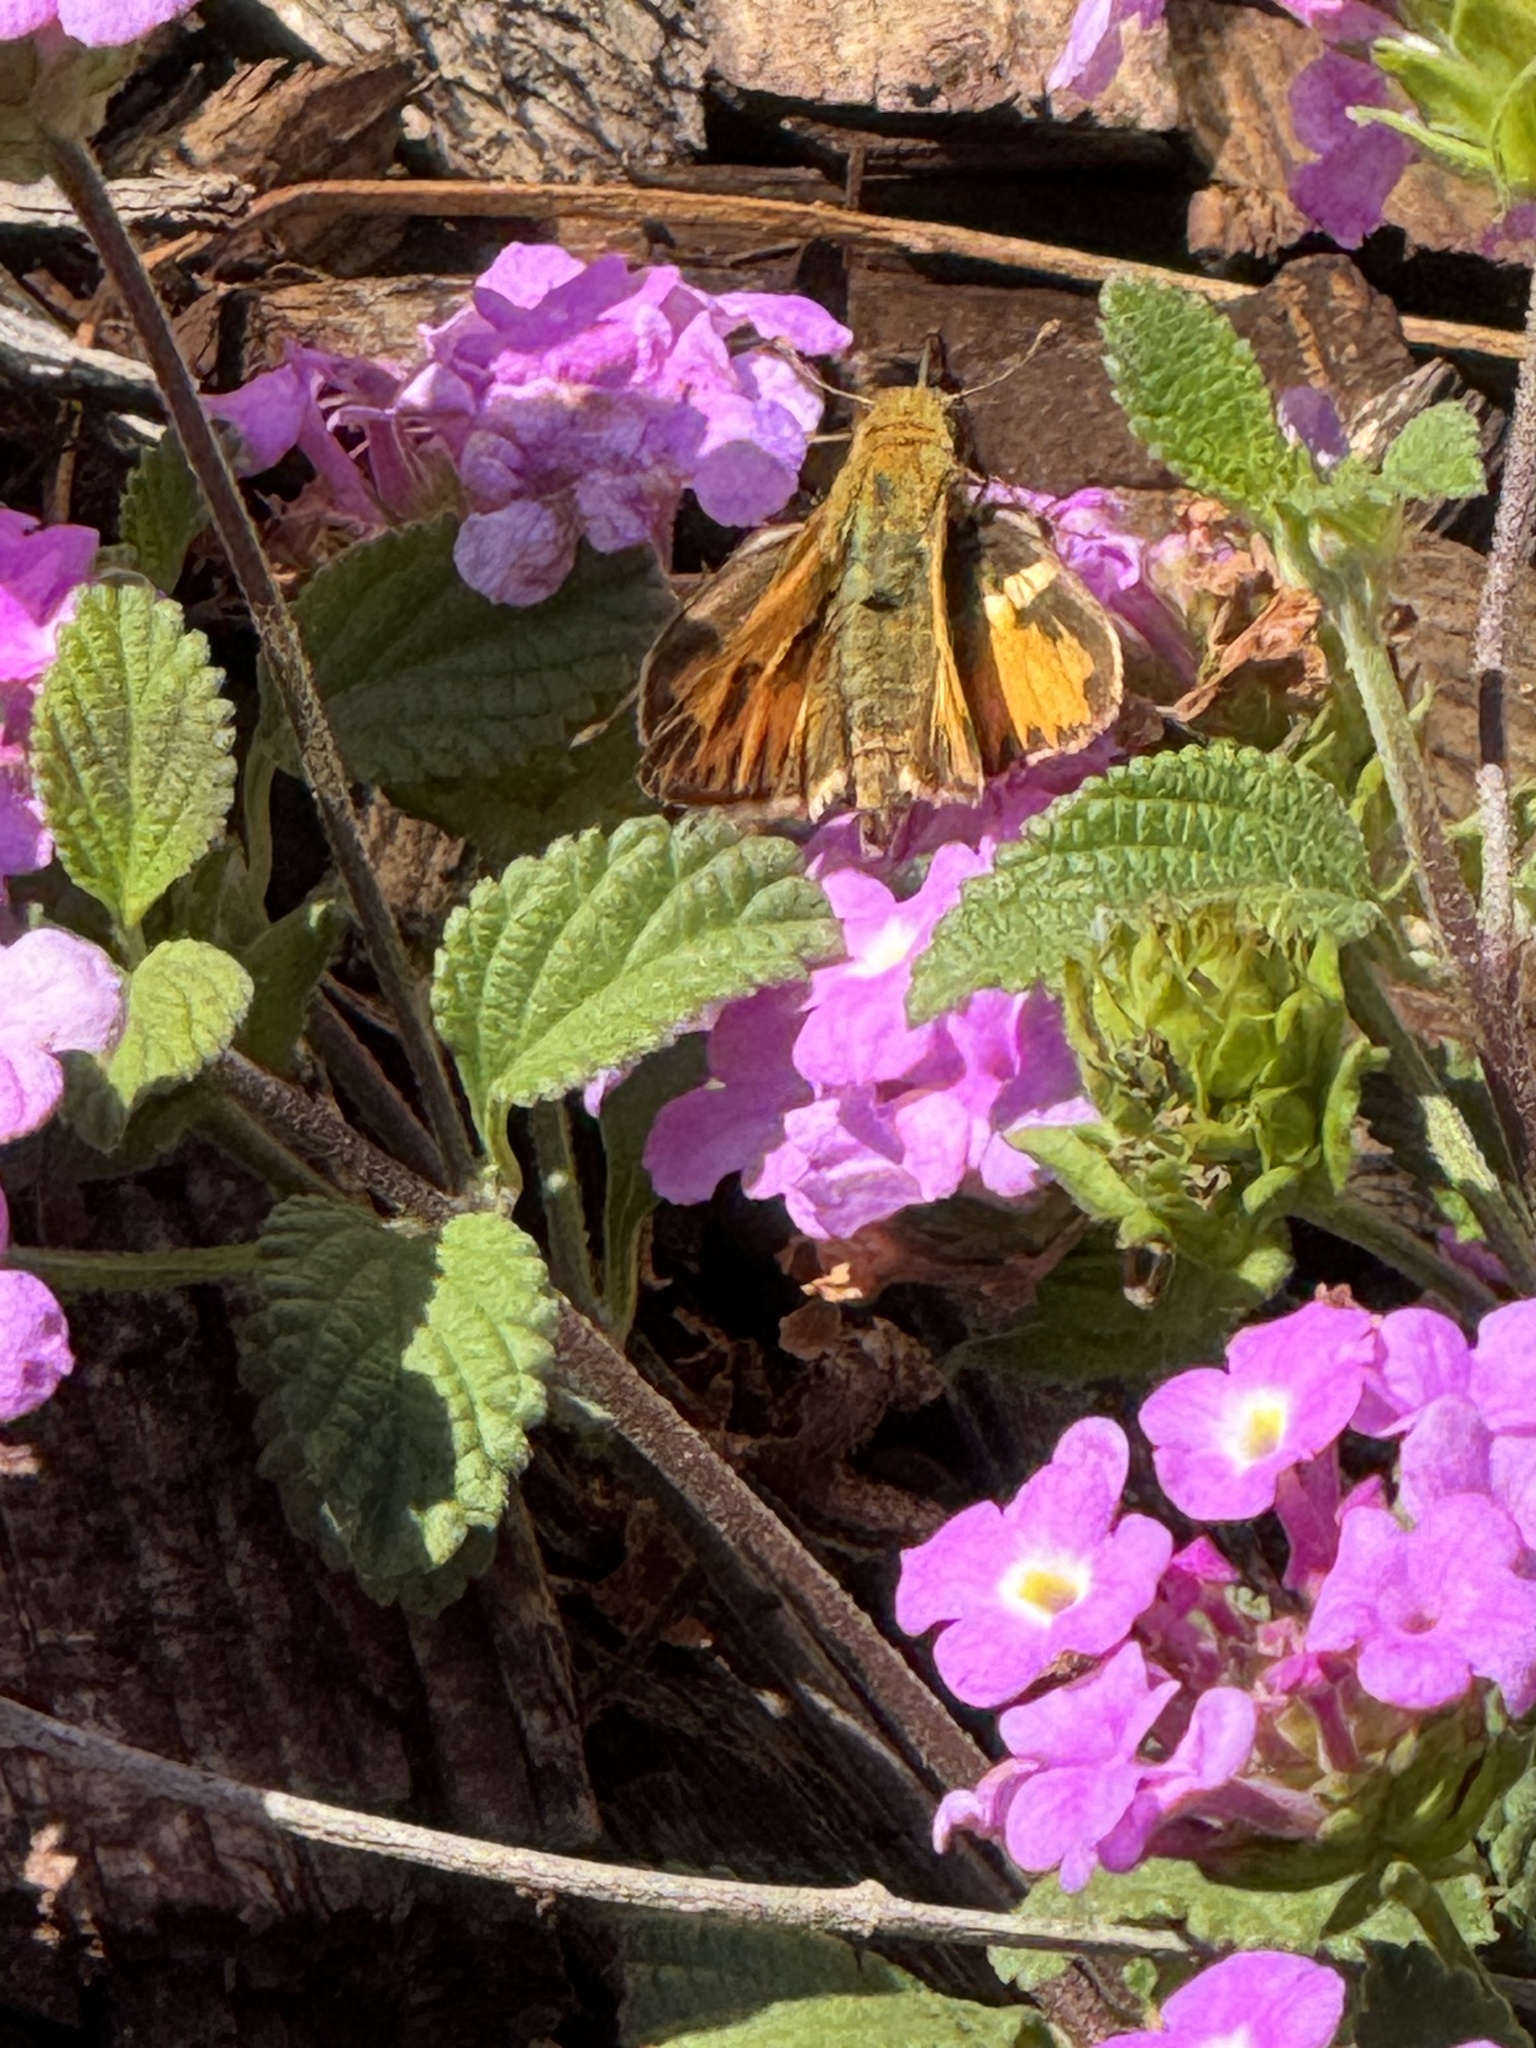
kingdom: Animalia
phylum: Arthropoda
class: Insecta
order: Lepidoptera
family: Hesperiidae
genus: Hylephila
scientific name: Hylephila phyleus
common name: Fiery skipper
